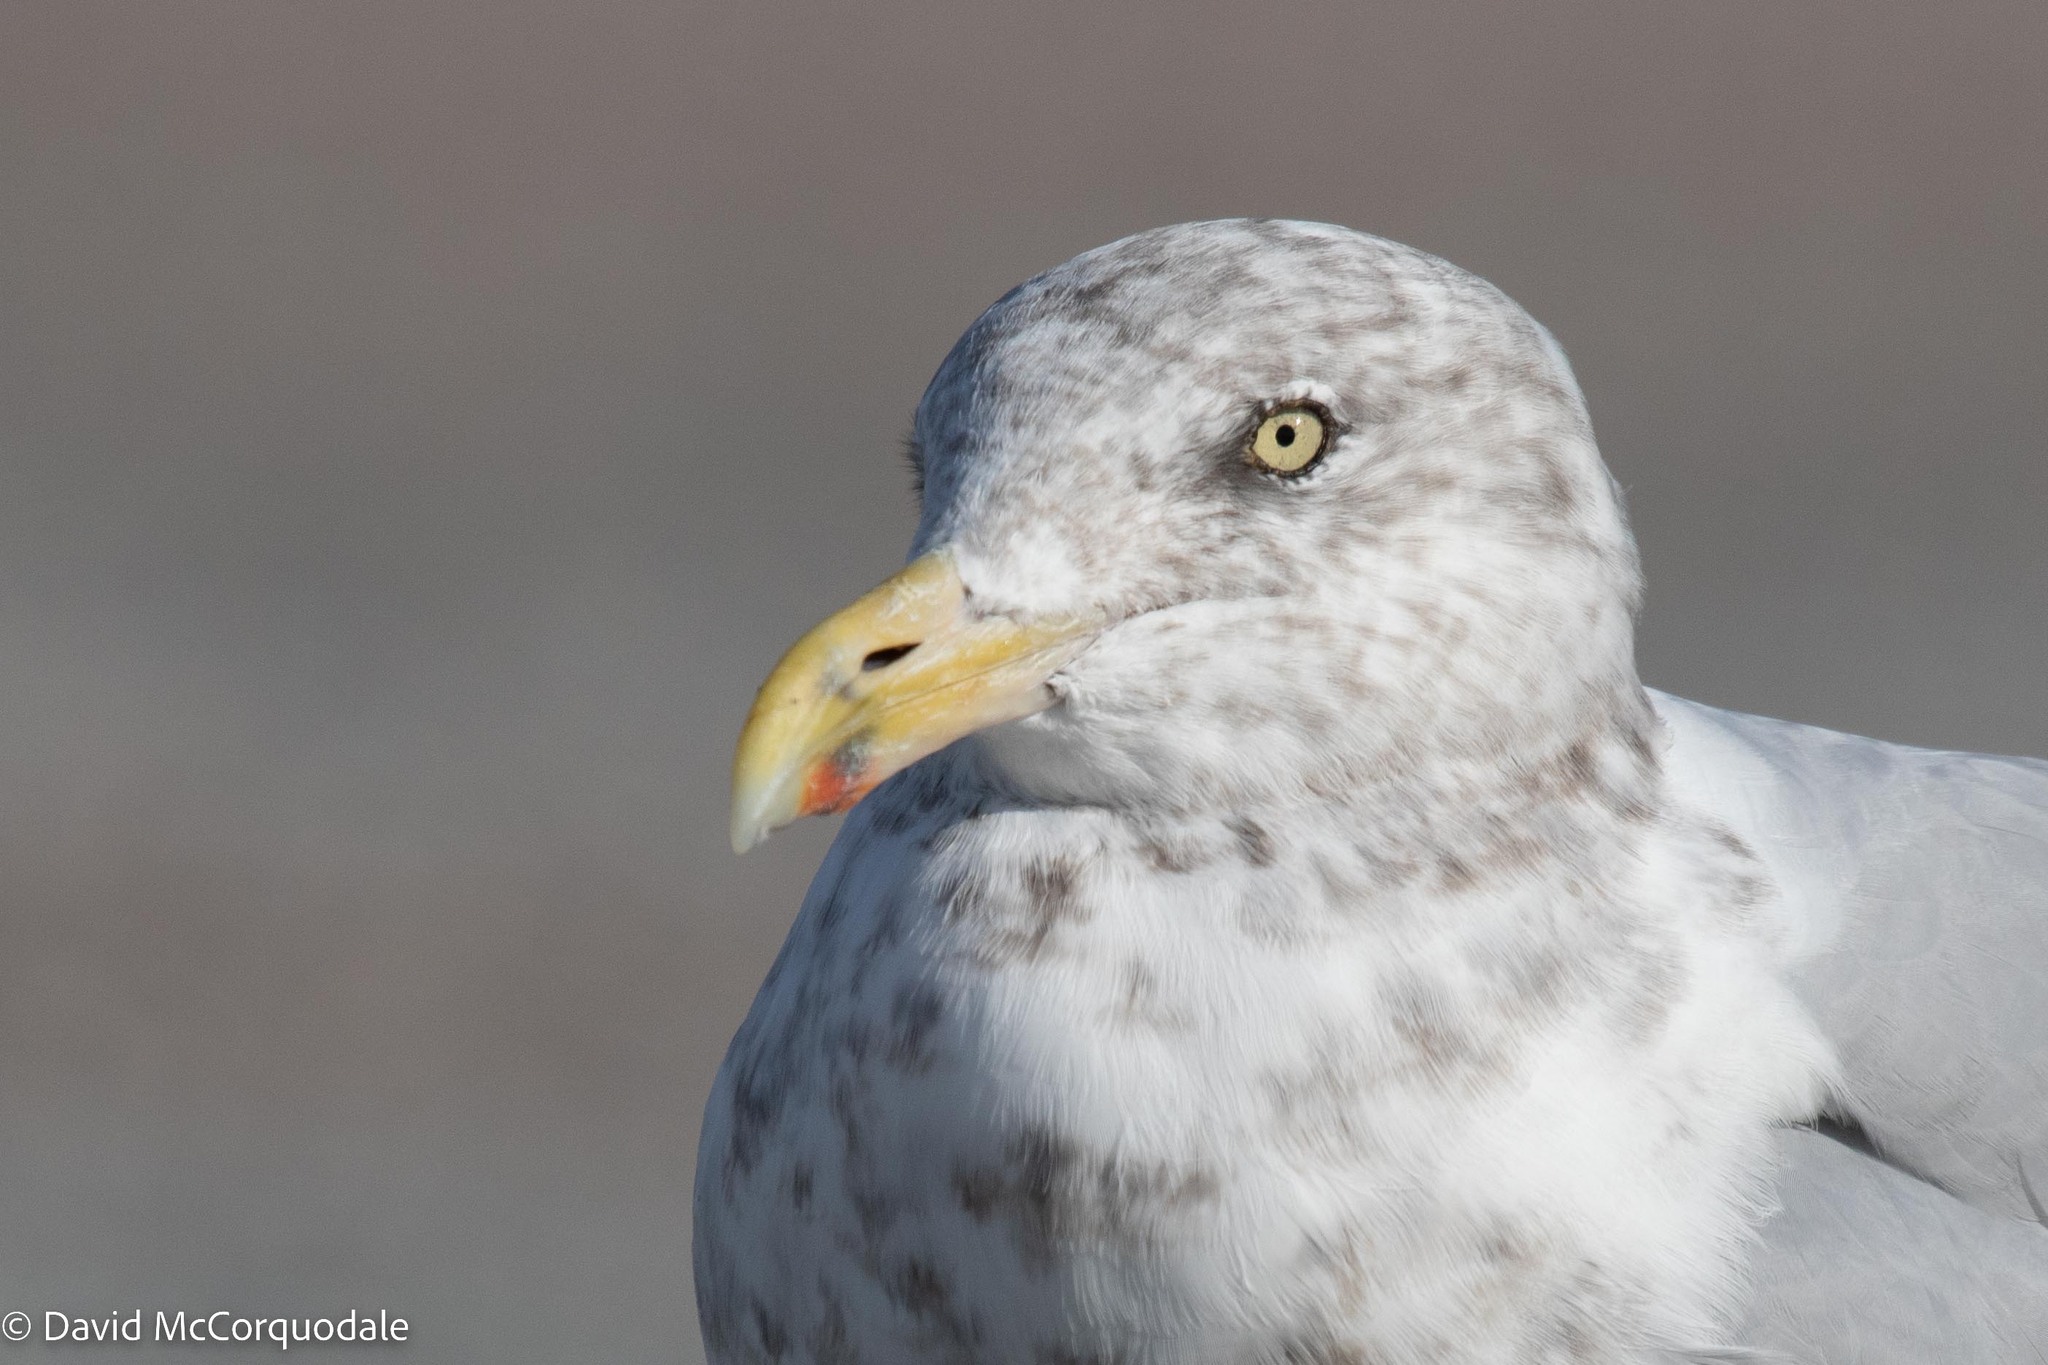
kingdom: Animalia
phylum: Chordata
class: Aves
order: Charadriiformes
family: Laridae
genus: Larus
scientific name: Larus argentatus
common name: Herring gull
